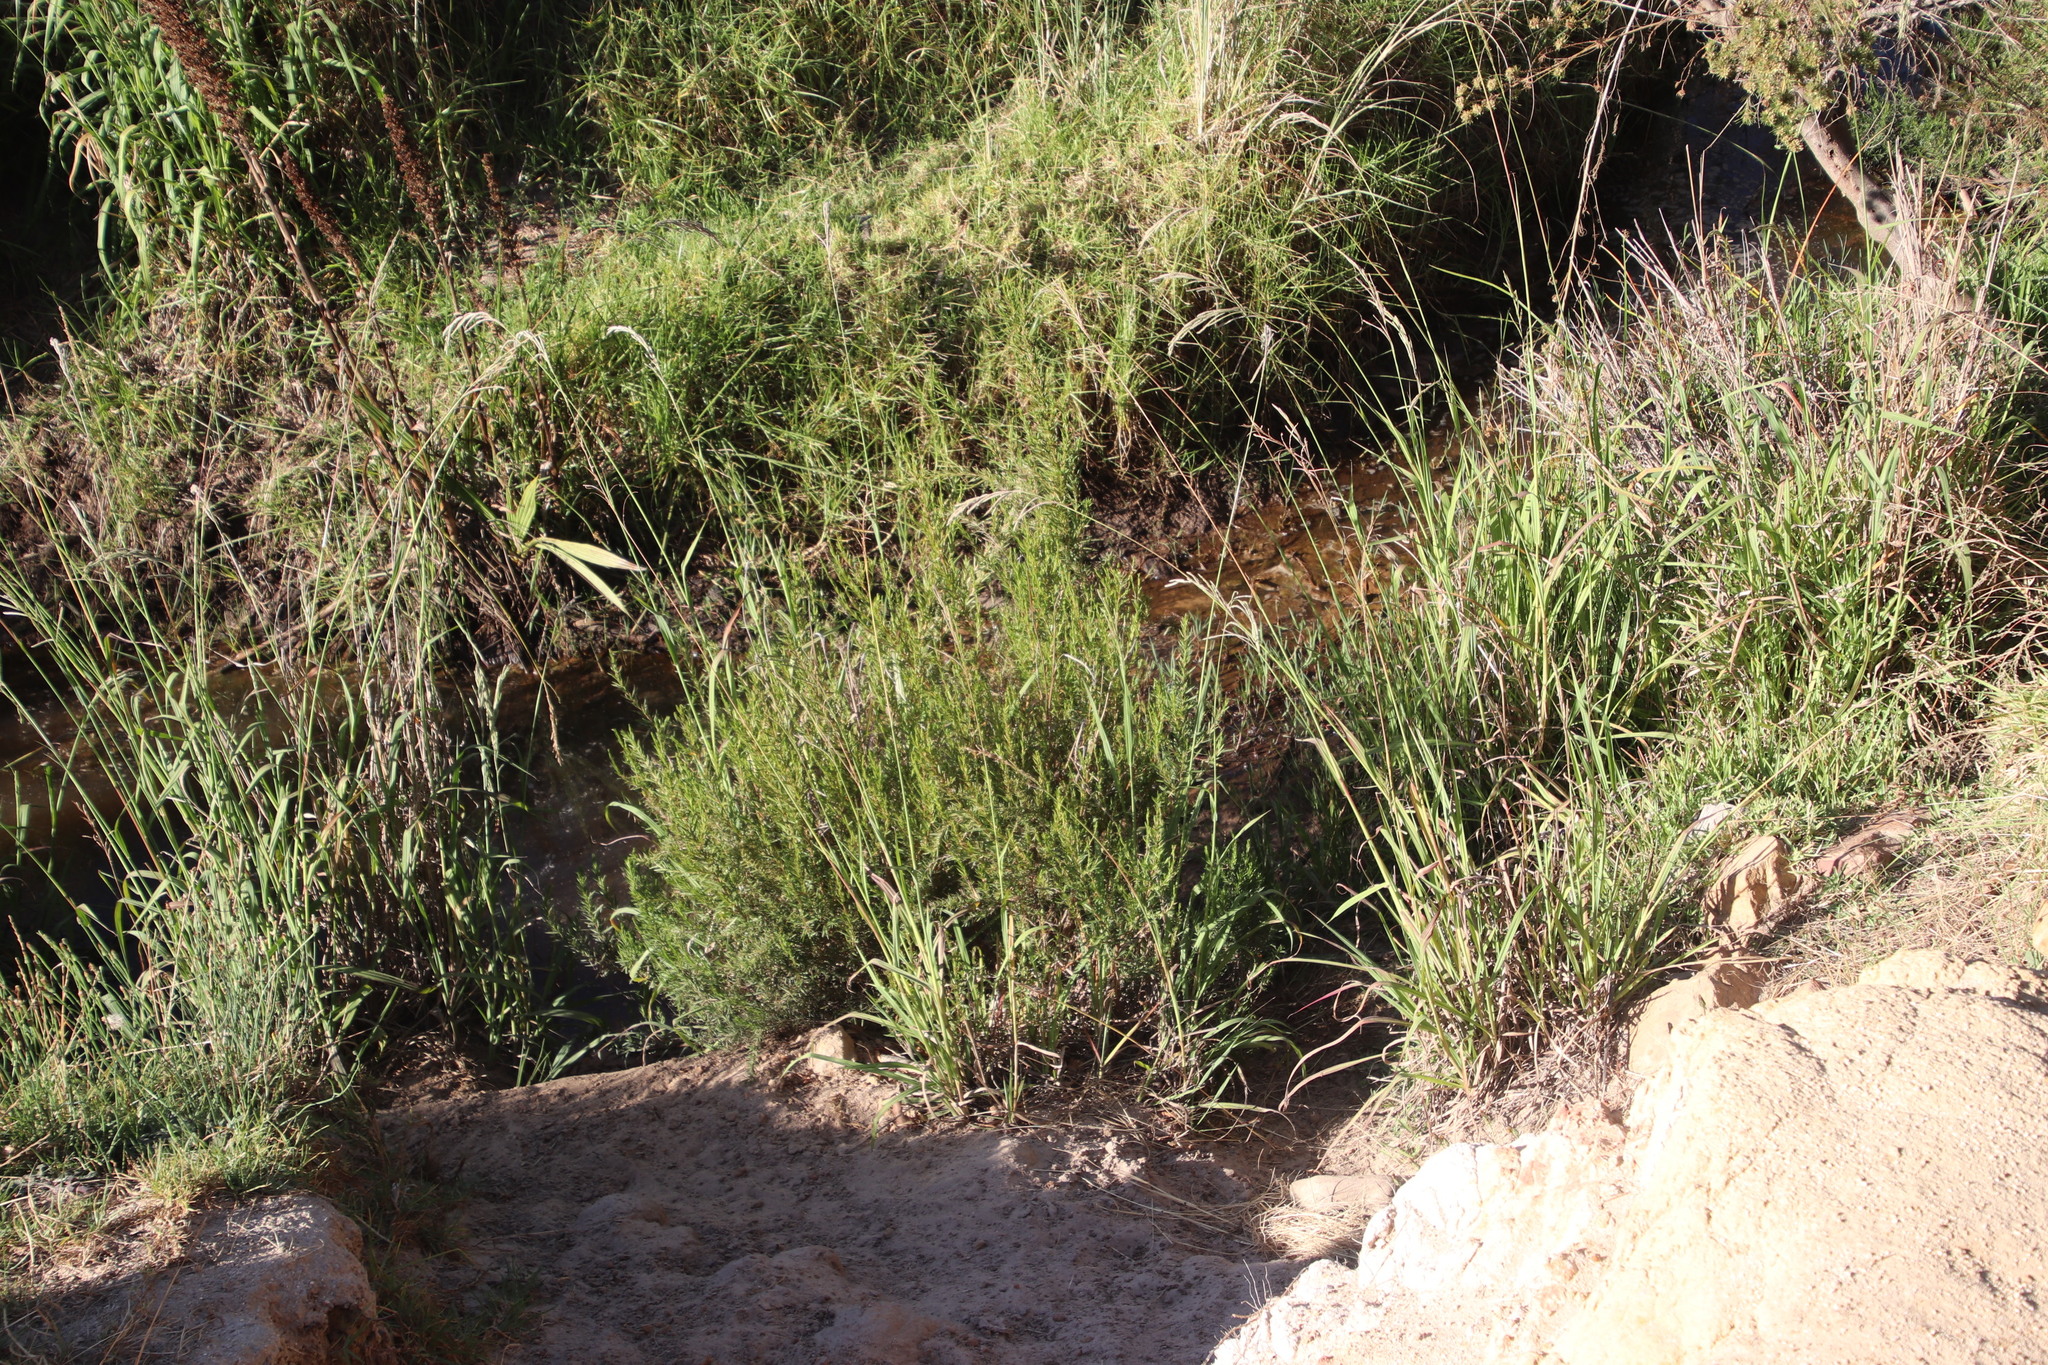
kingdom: Plantae
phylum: Tracheophyta
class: Magnoliopsida
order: Rosales
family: Rosaceae
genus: Cliffortia
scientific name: Cliffortia strobilifera
